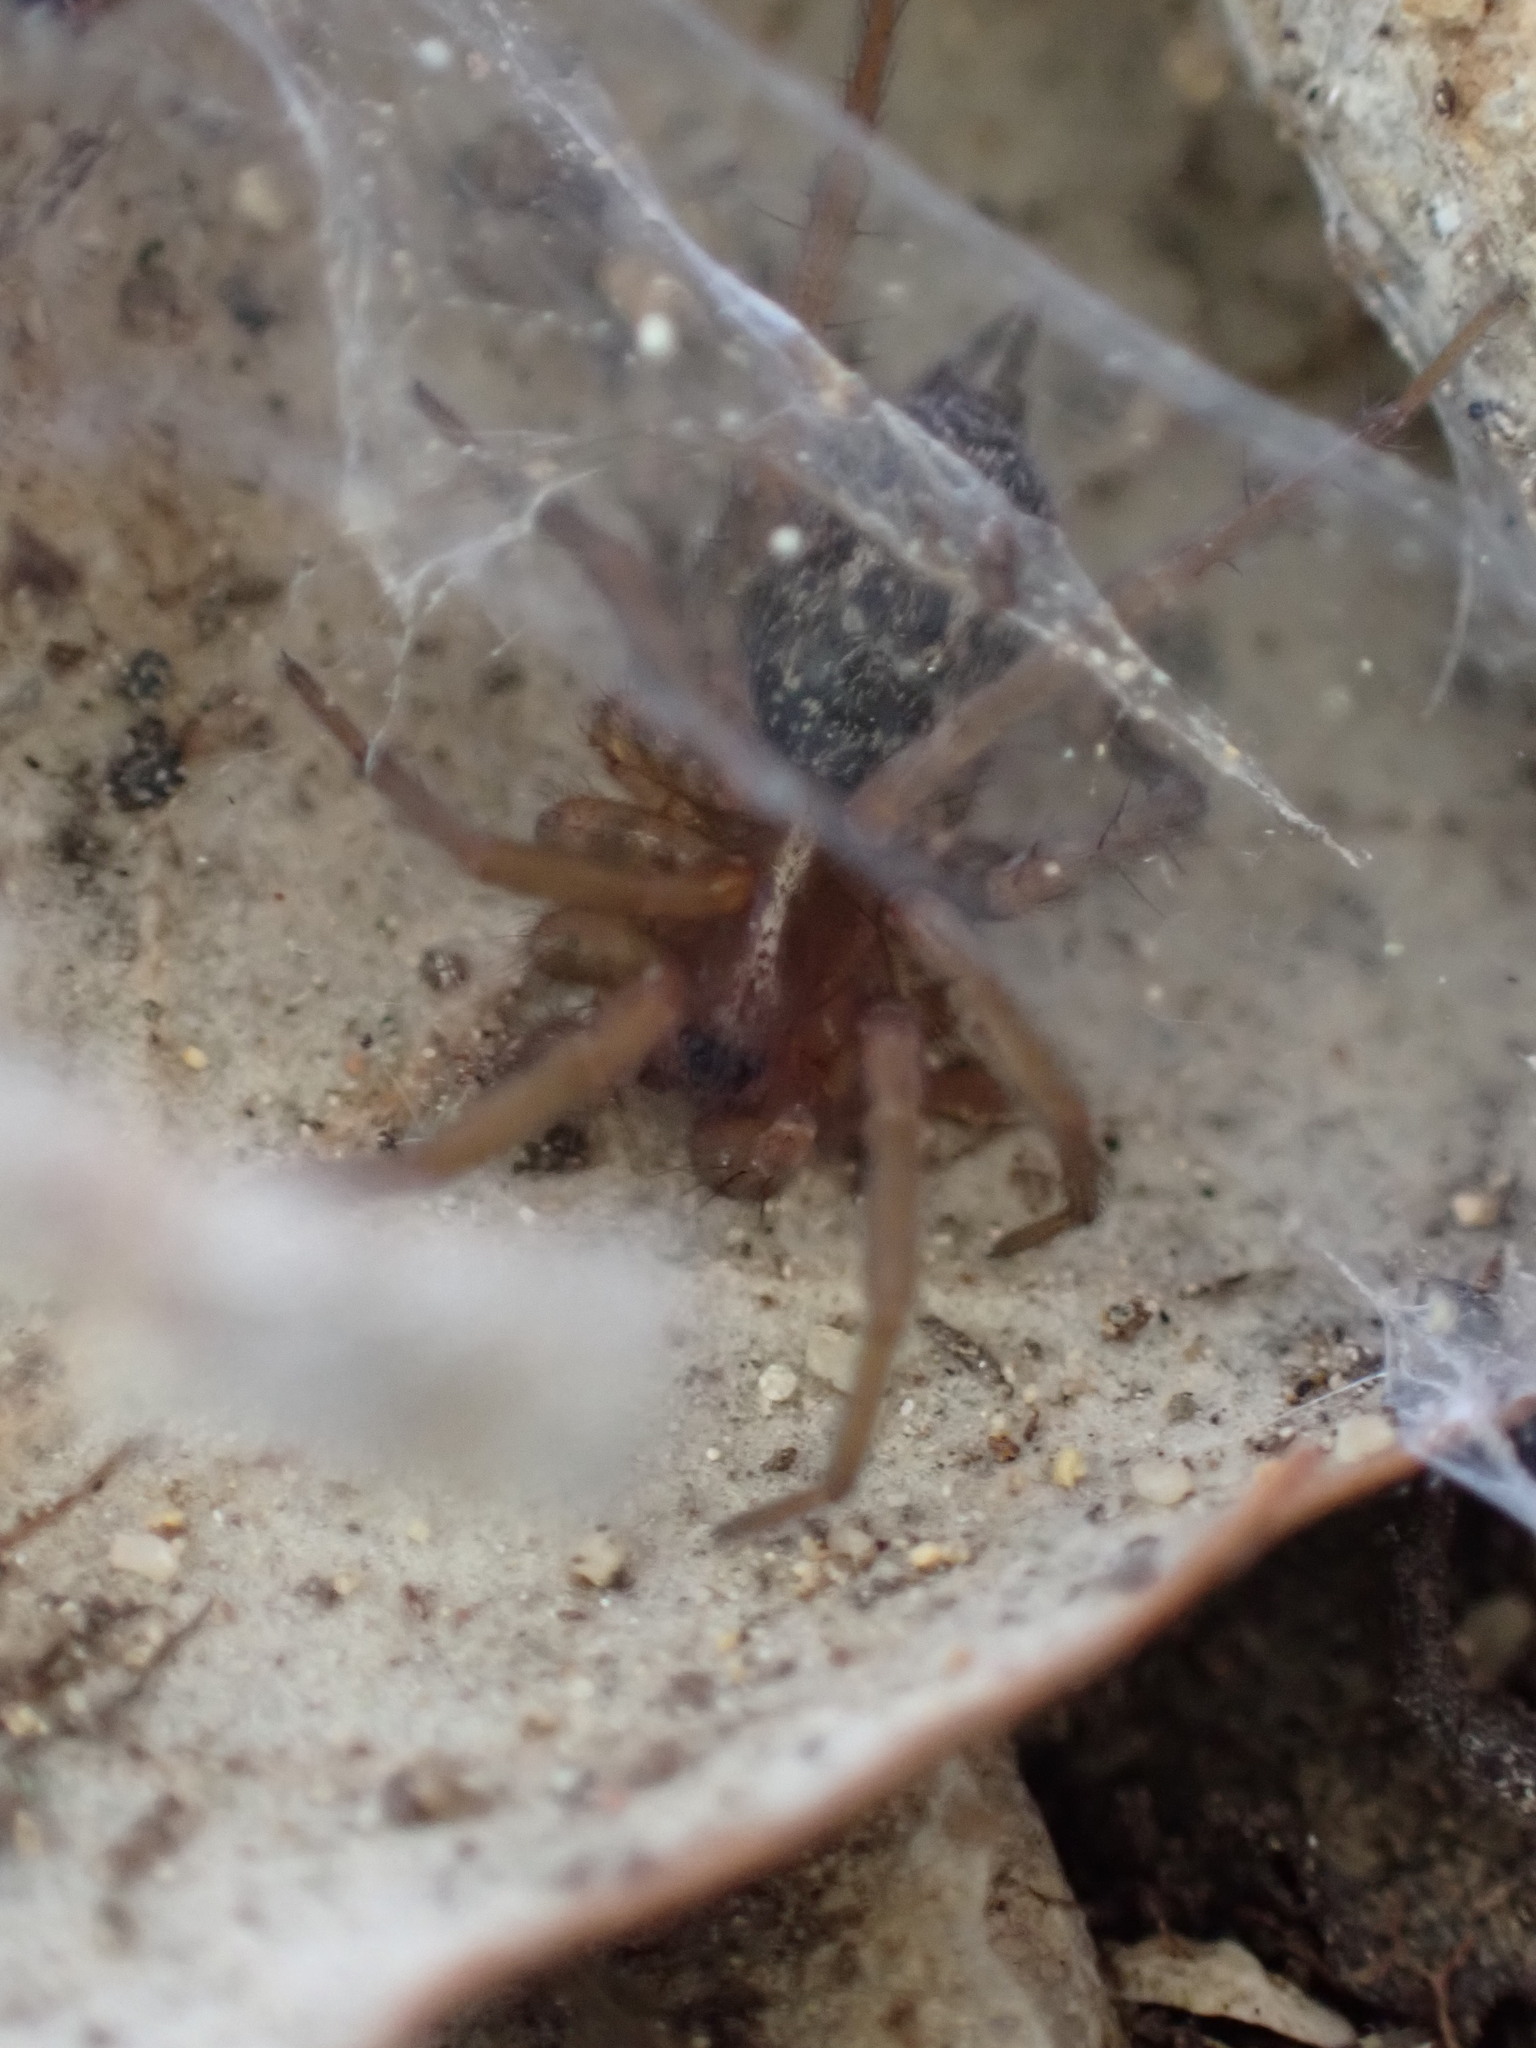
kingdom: Animalia
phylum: Arthropoda
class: Arachnida
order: Araneae
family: Agelenidae
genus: Lycosoides
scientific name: Lycosoides coarctata
